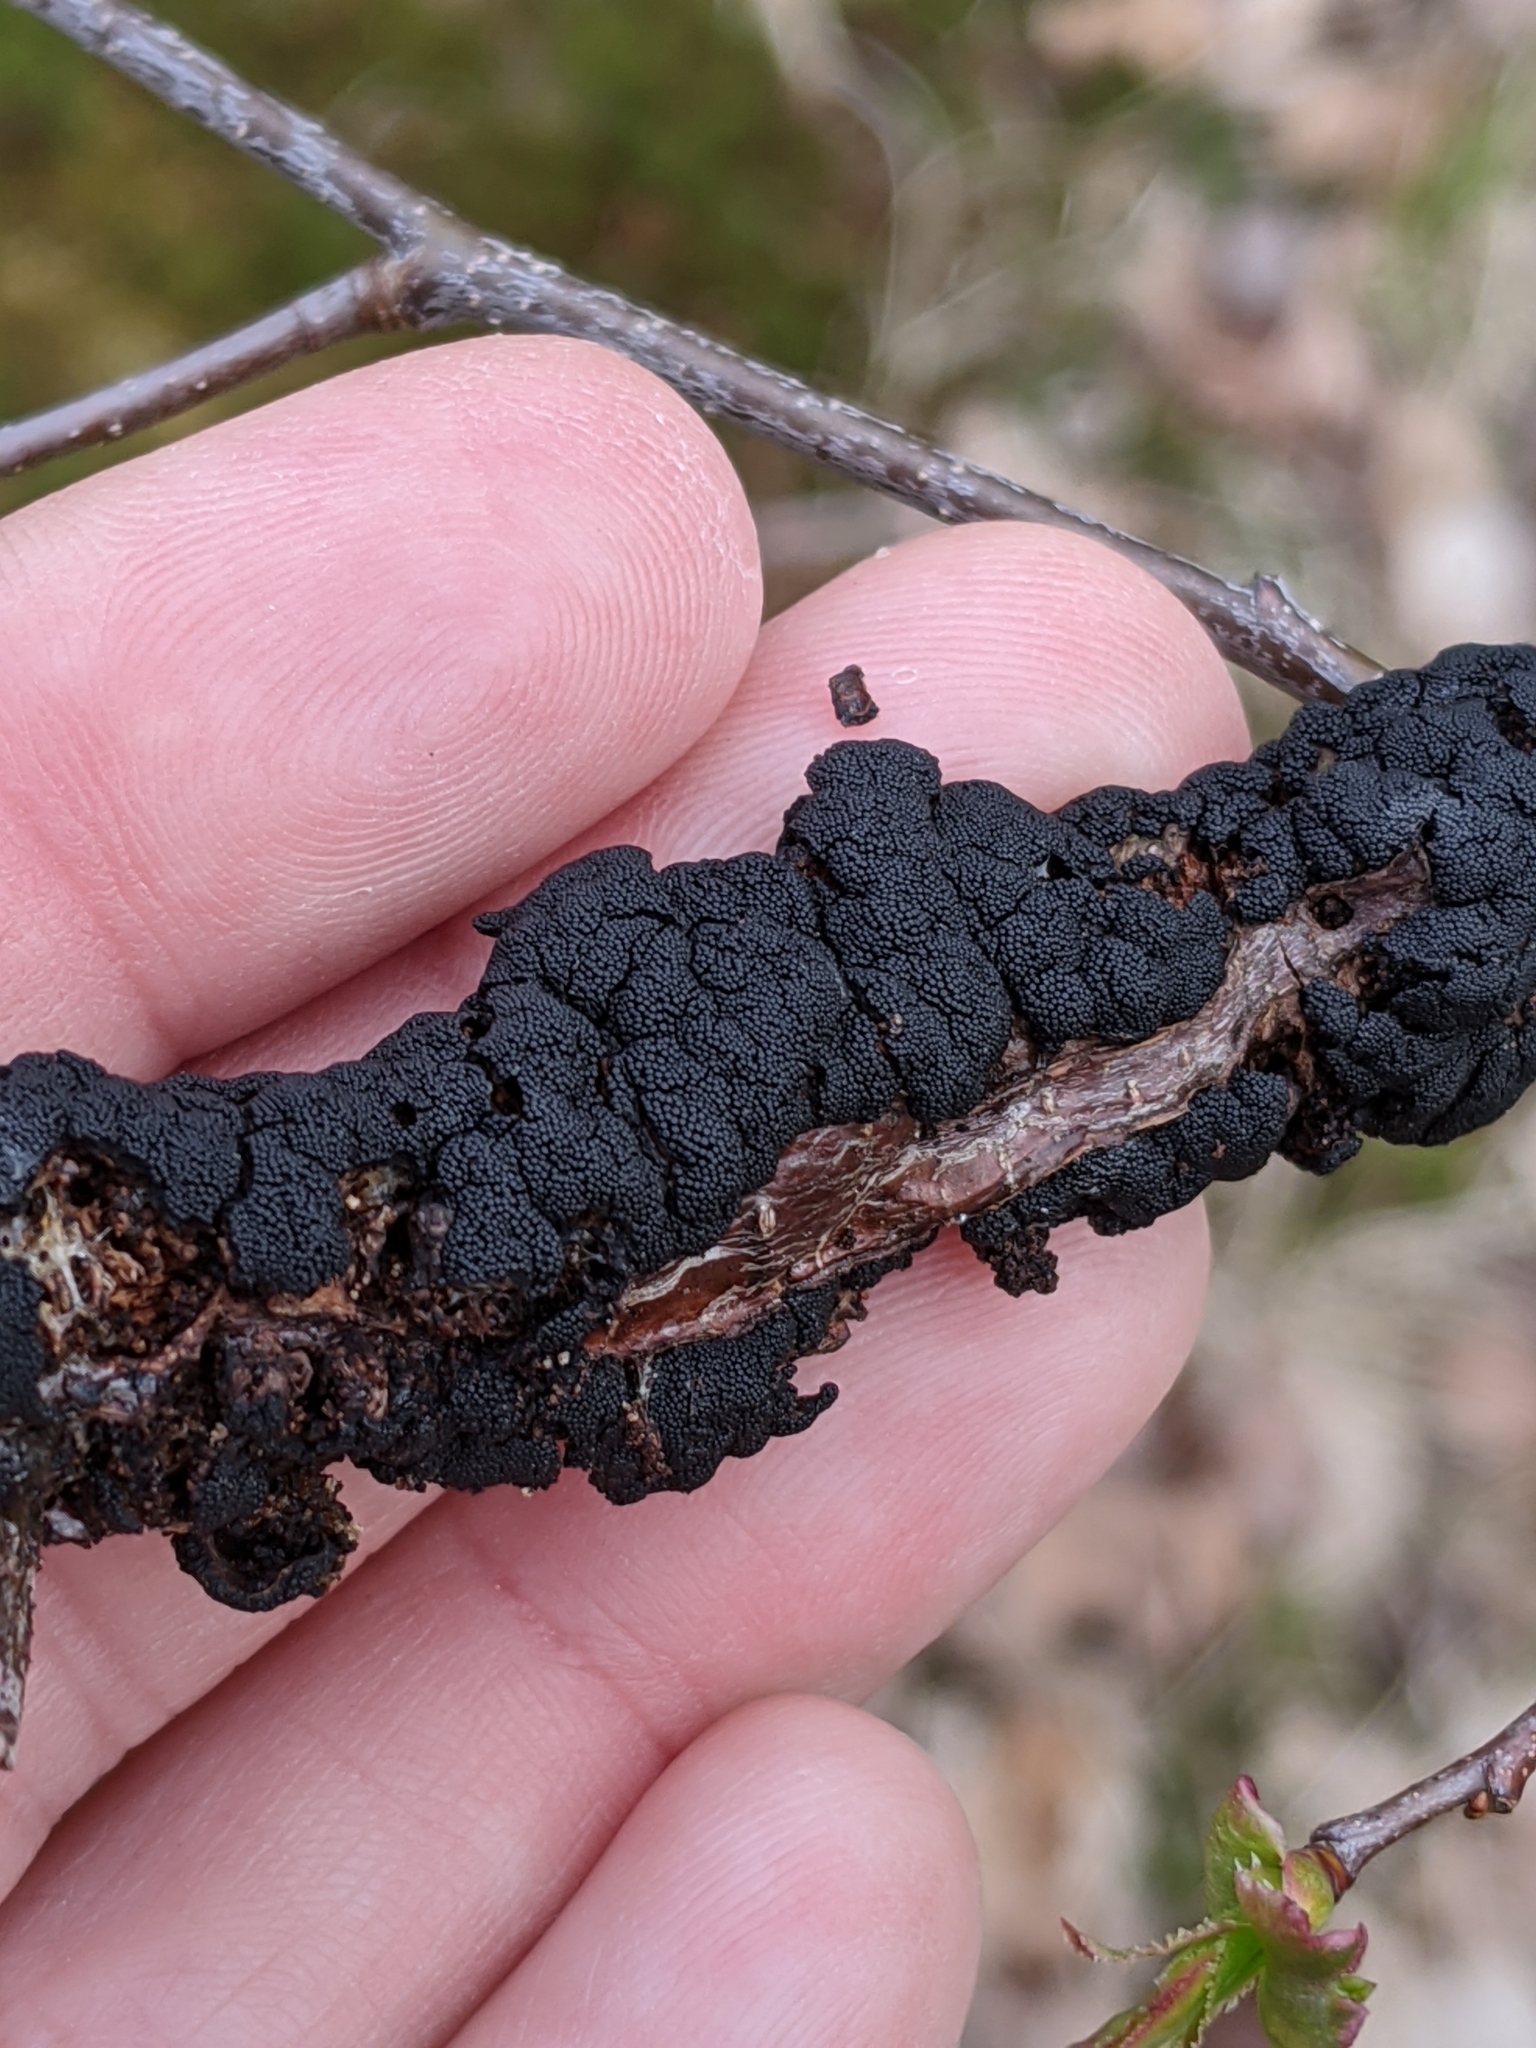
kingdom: Fungi
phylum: Ascomycota
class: Dothideomycetes
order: Venturiales
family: Venturiaceae
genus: Apiosporina
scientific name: Apiosporina morbosa
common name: Black knot
